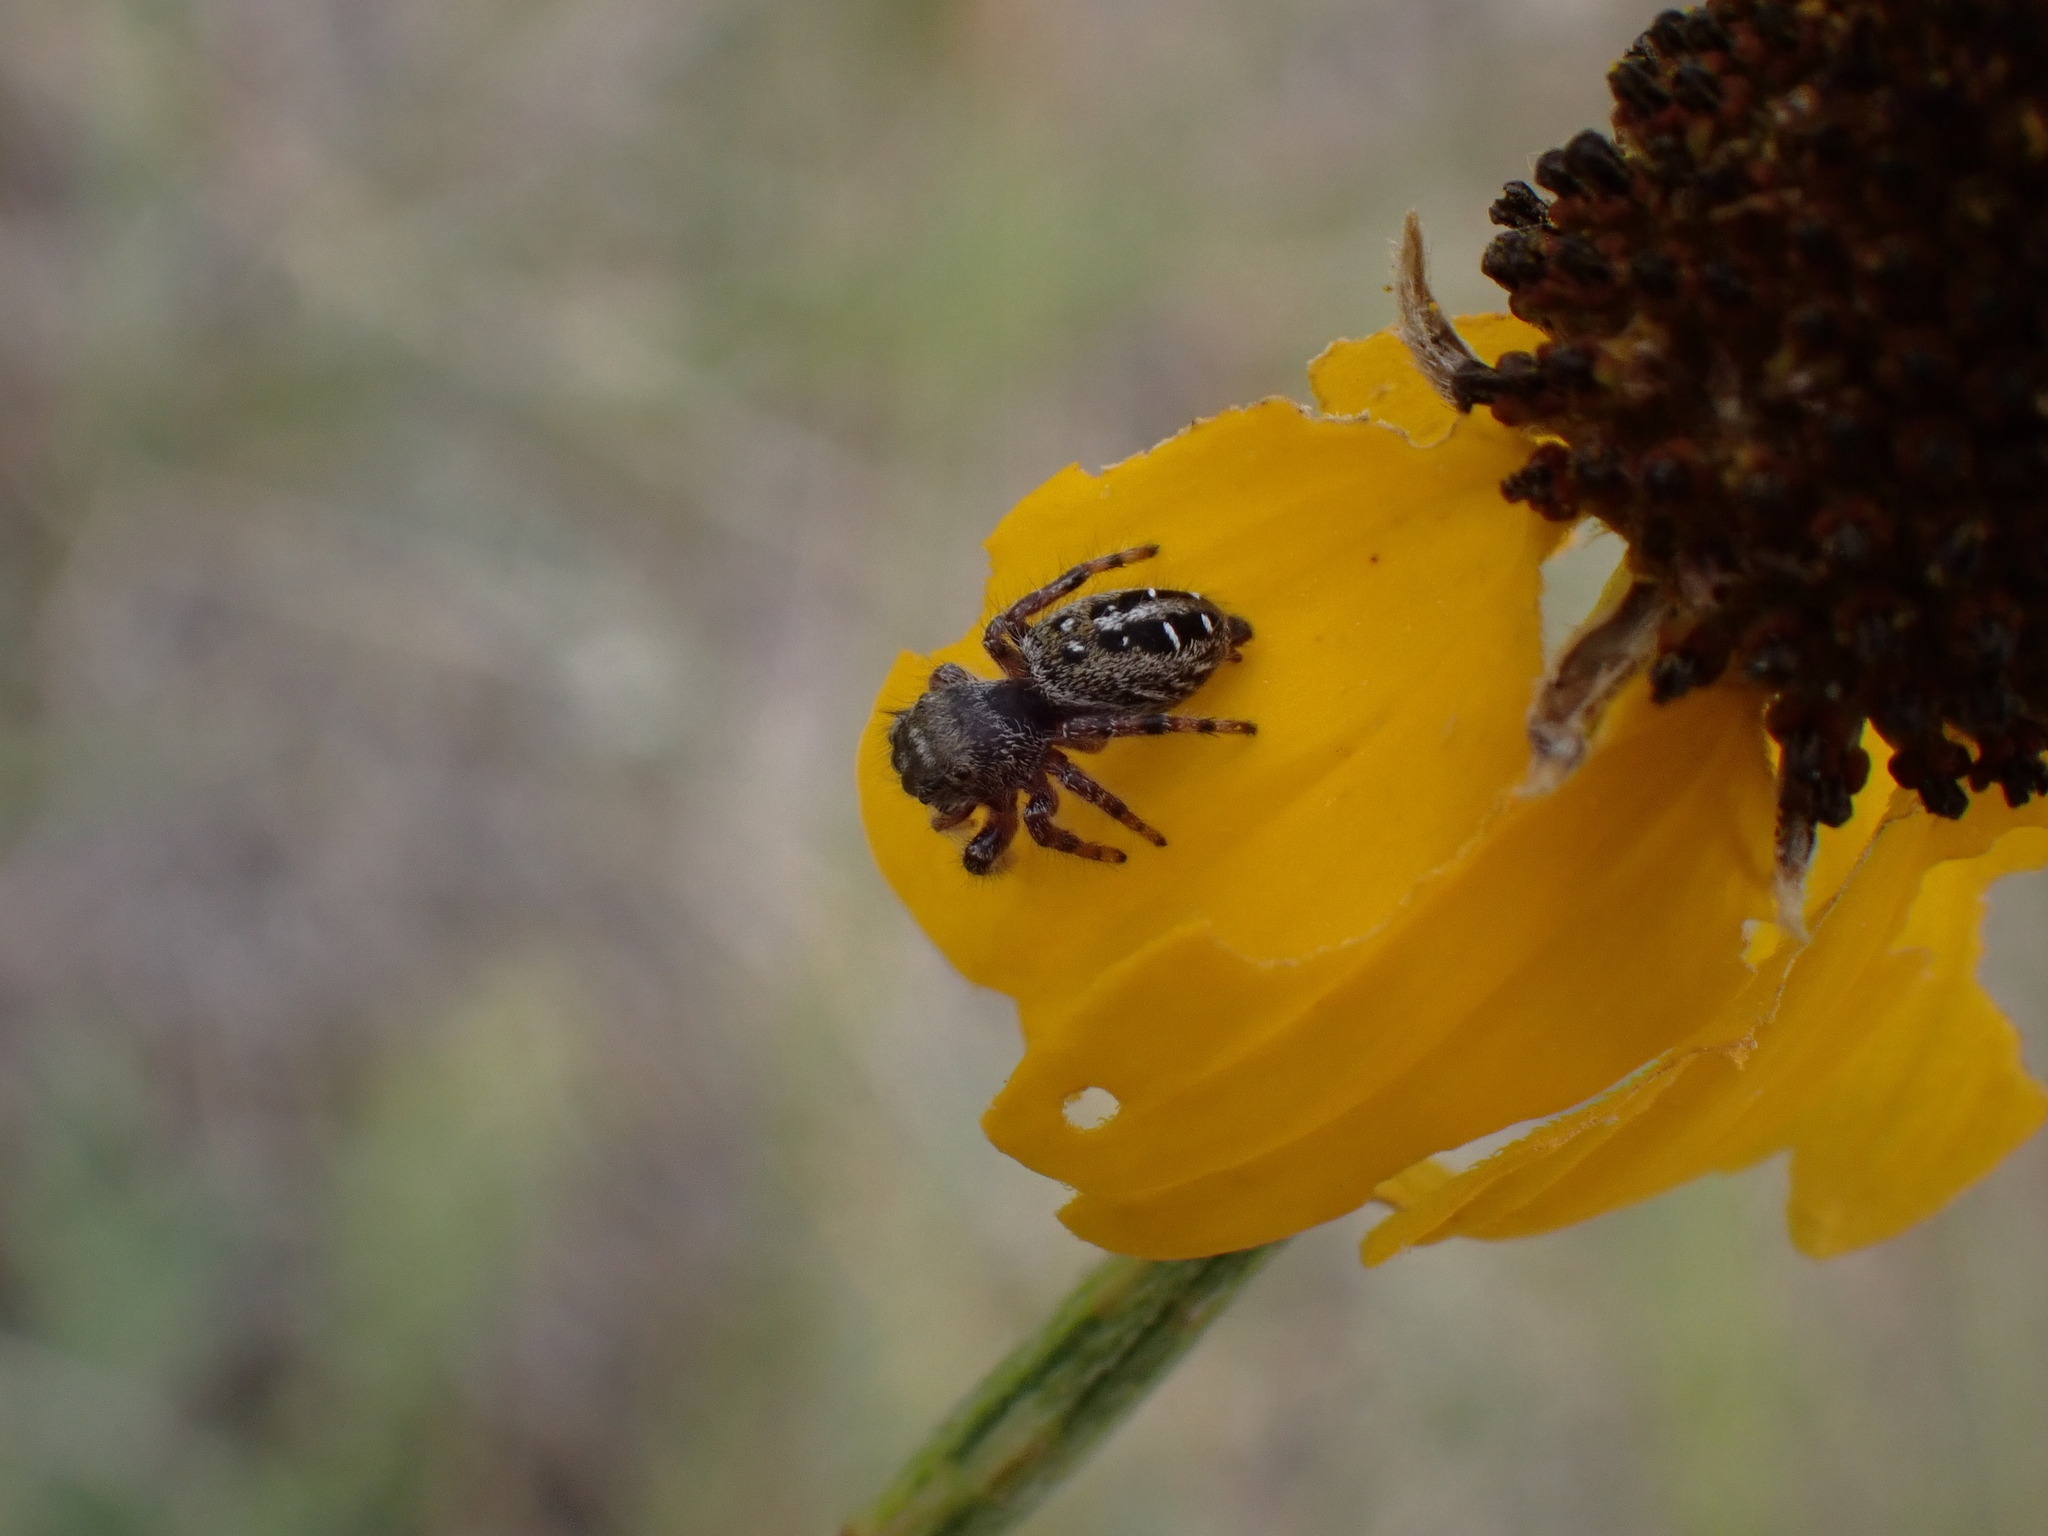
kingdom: Animalia
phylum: Arthropoda
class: Arachnida
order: Araneae
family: Salticidae
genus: Phidippus
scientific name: Phidippus purpuratus
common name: Marbled purple jumping spider
